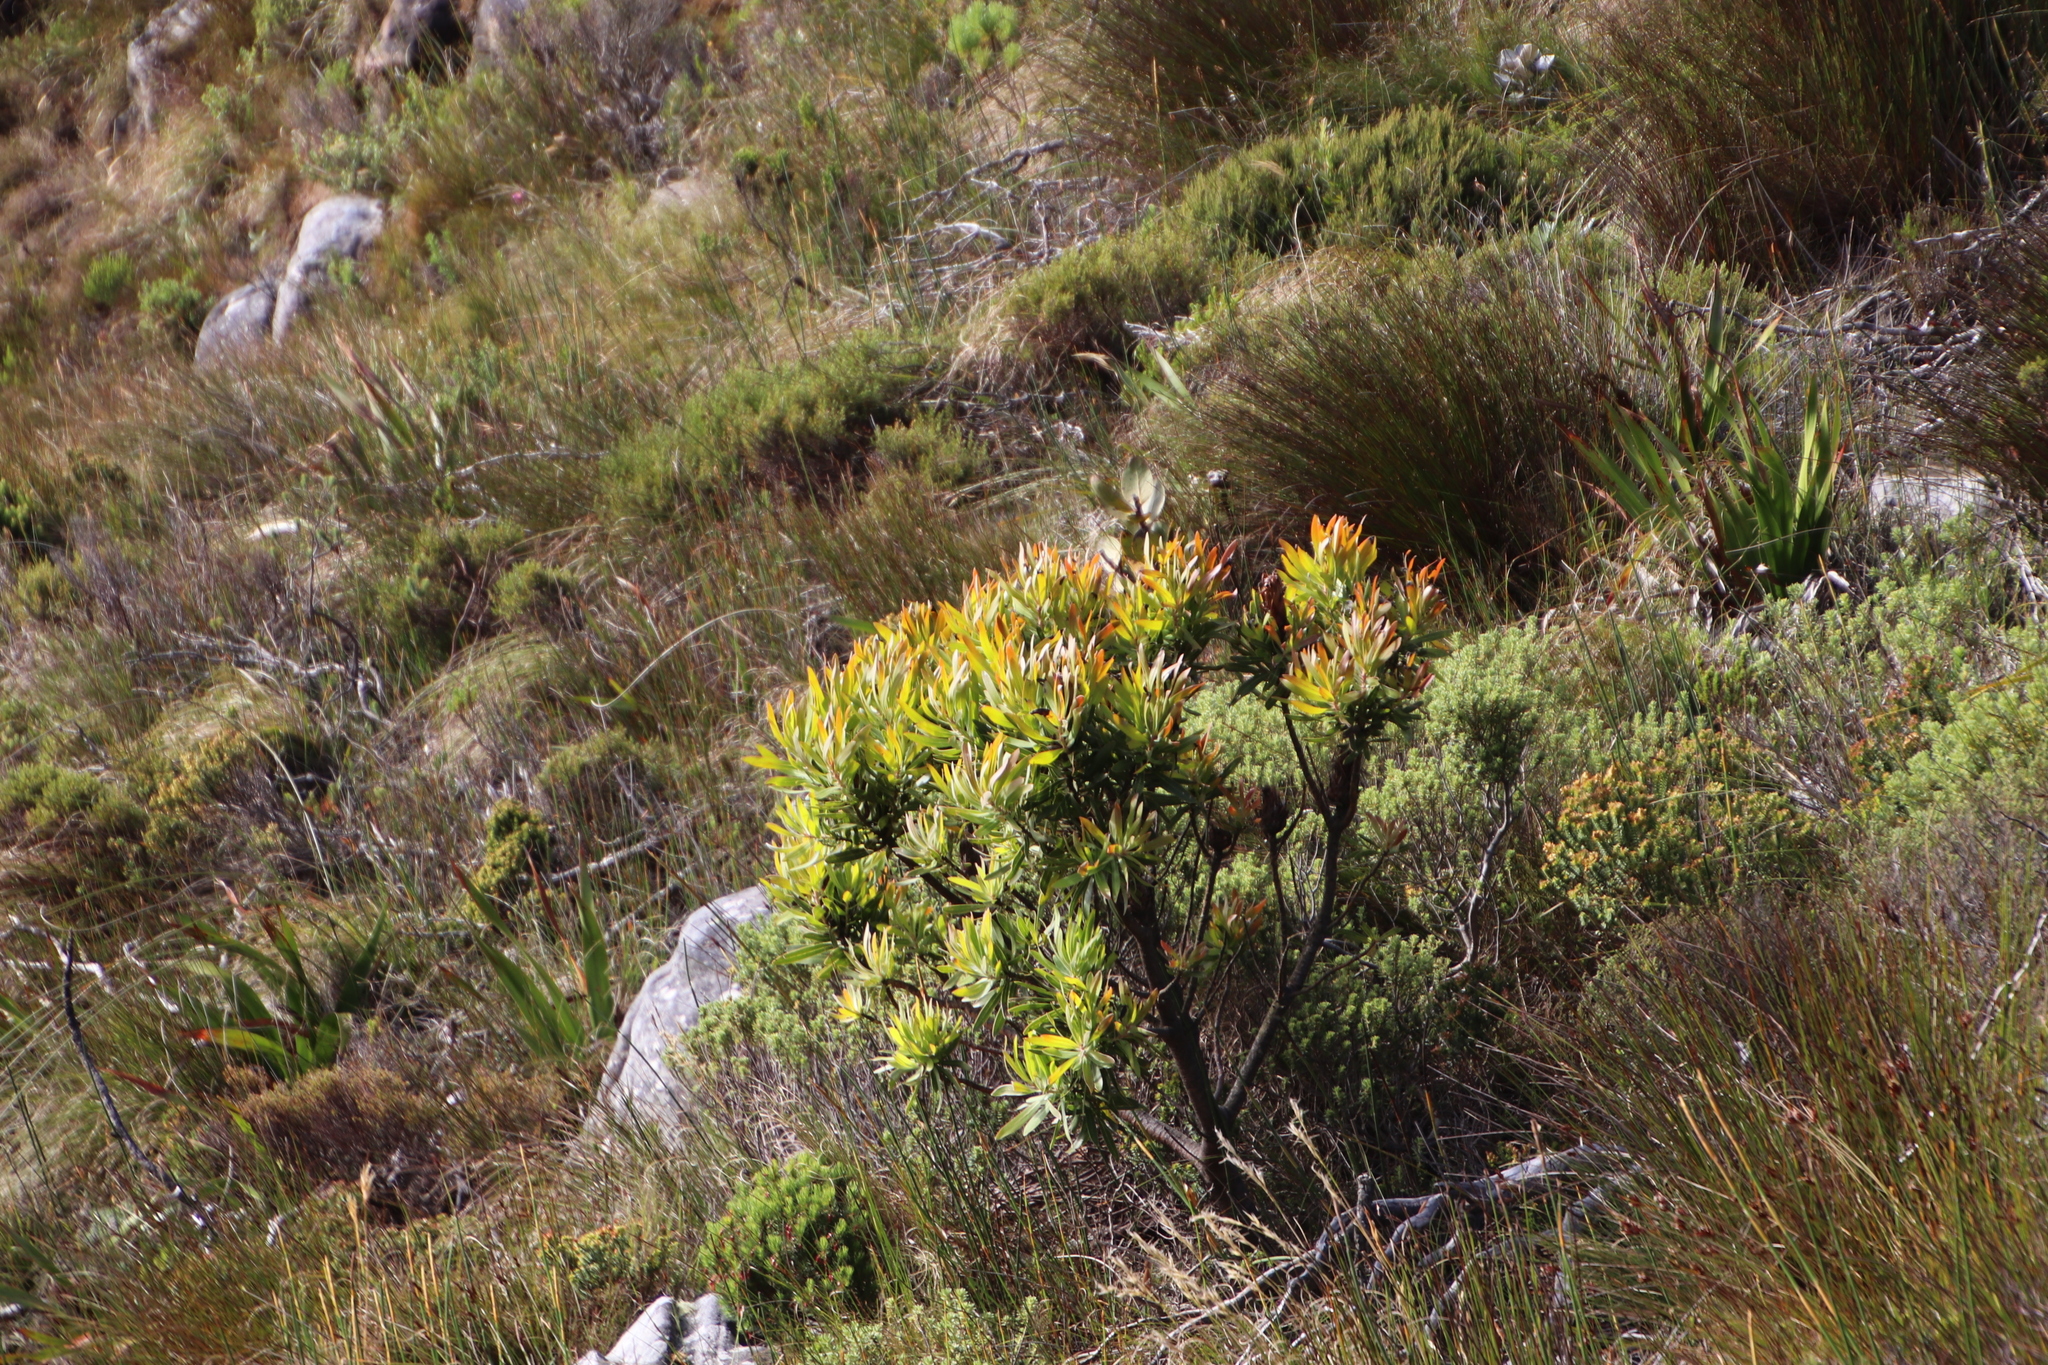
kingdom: Plantae
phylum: Tracheophyta
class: Magnoliopsida
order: Proteales
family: Proteaceae
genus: Protea
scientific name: Protea lepidocarpodendron
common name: Black-bearded protea
